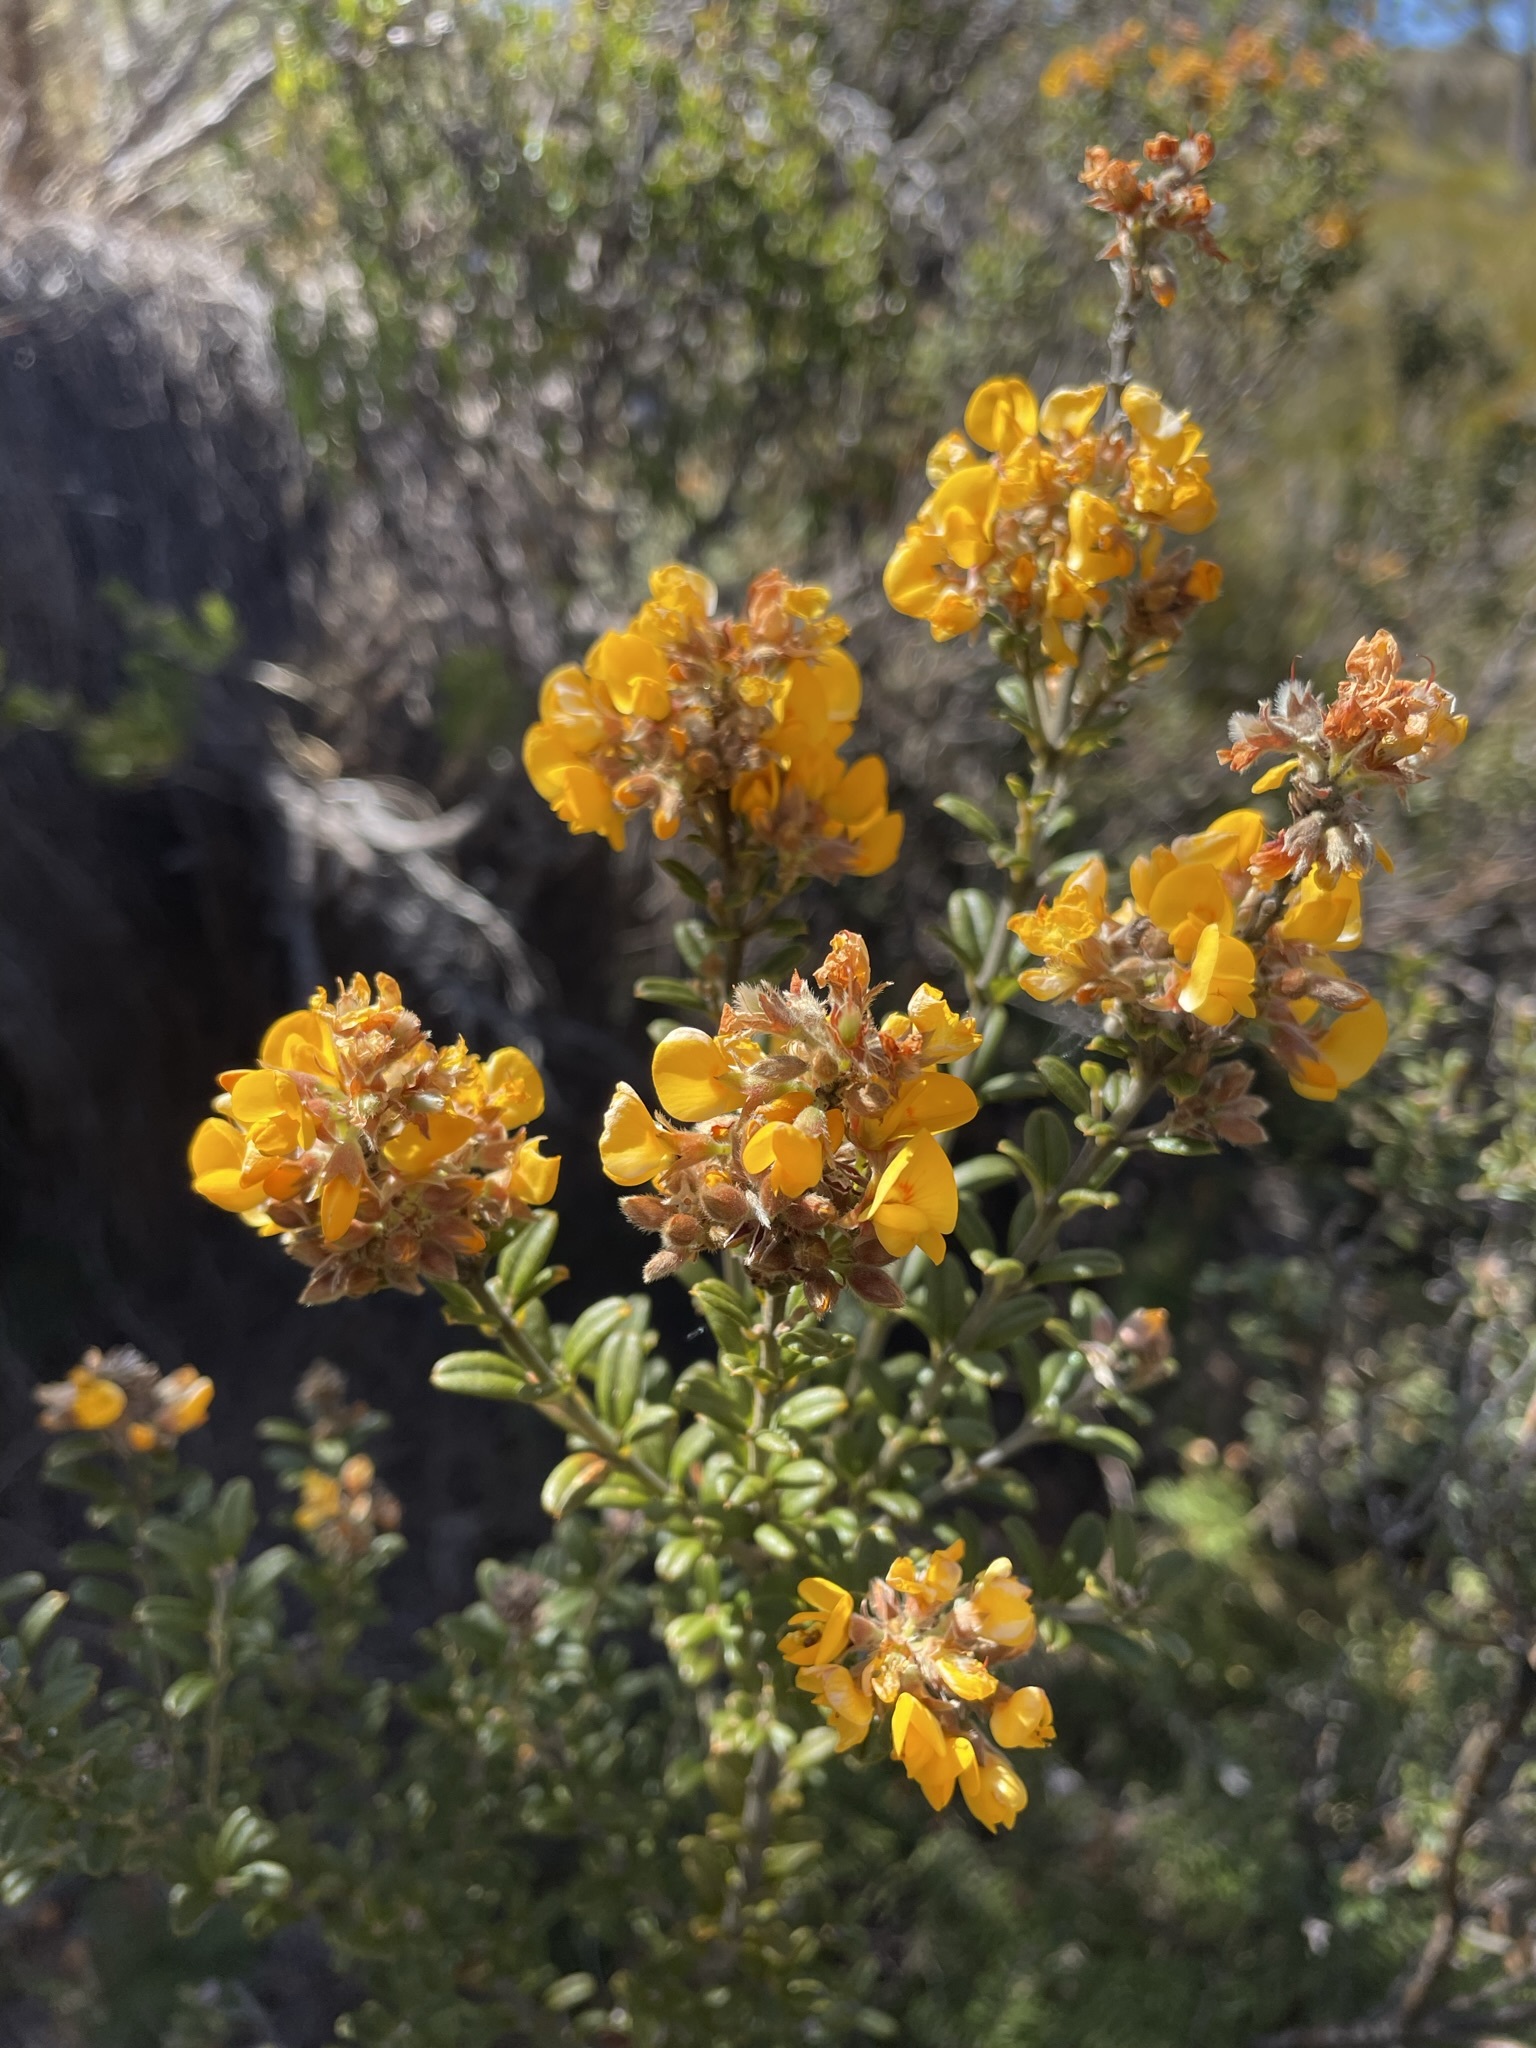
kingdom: Plantae
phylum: Tracheophyta
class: Magnoliopsida
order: Fabales
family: Fabaceae
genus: Oxylobium
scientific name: Oxylobium ellipticum
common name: Golden shaggy-pea
